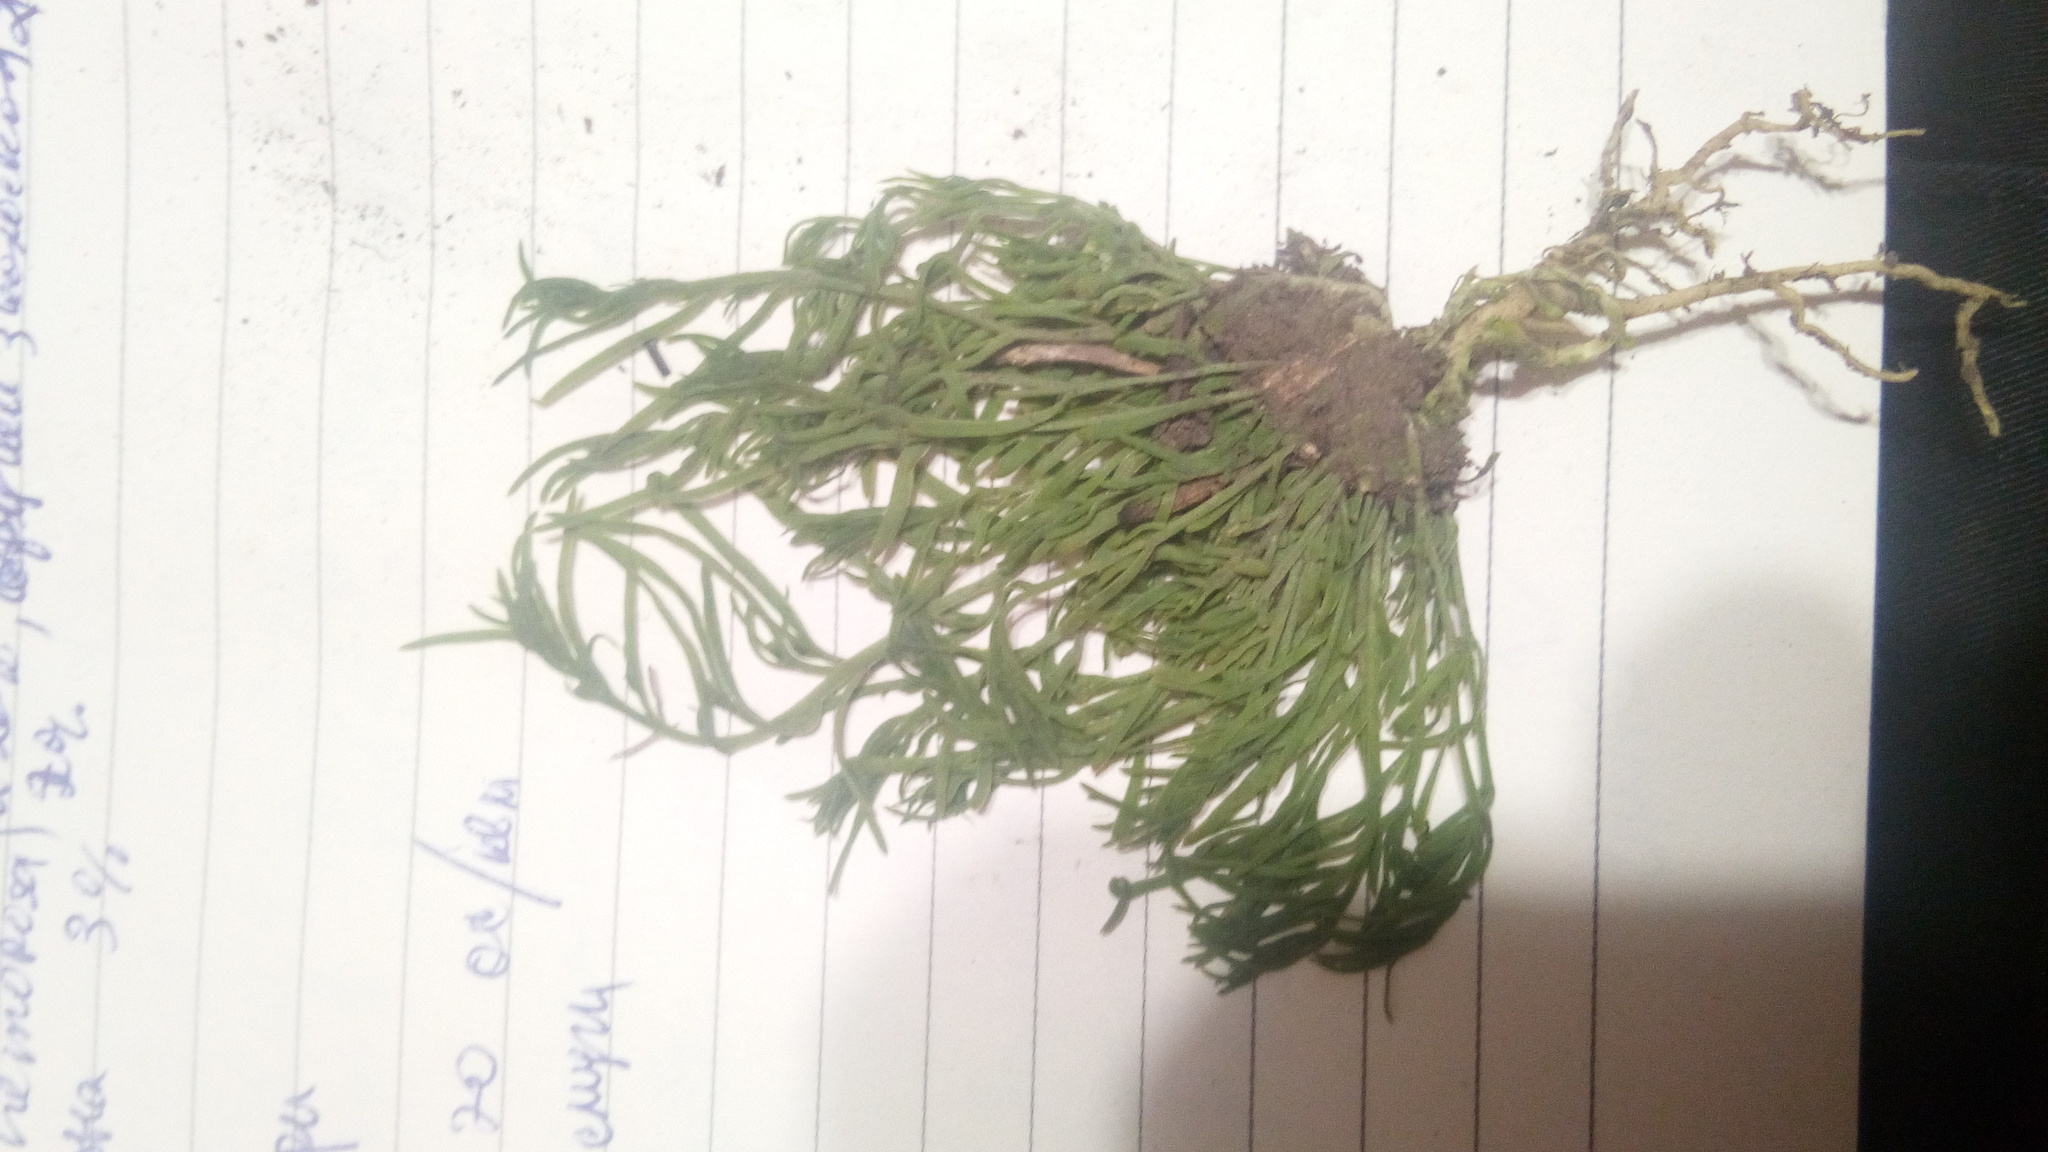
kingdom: Plantae
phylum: Tracheophyta
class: Magnoliopsida
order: Santalales
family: Thesiaceae
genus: Thesium
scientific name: Thesium ramosum
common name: Field thesium
